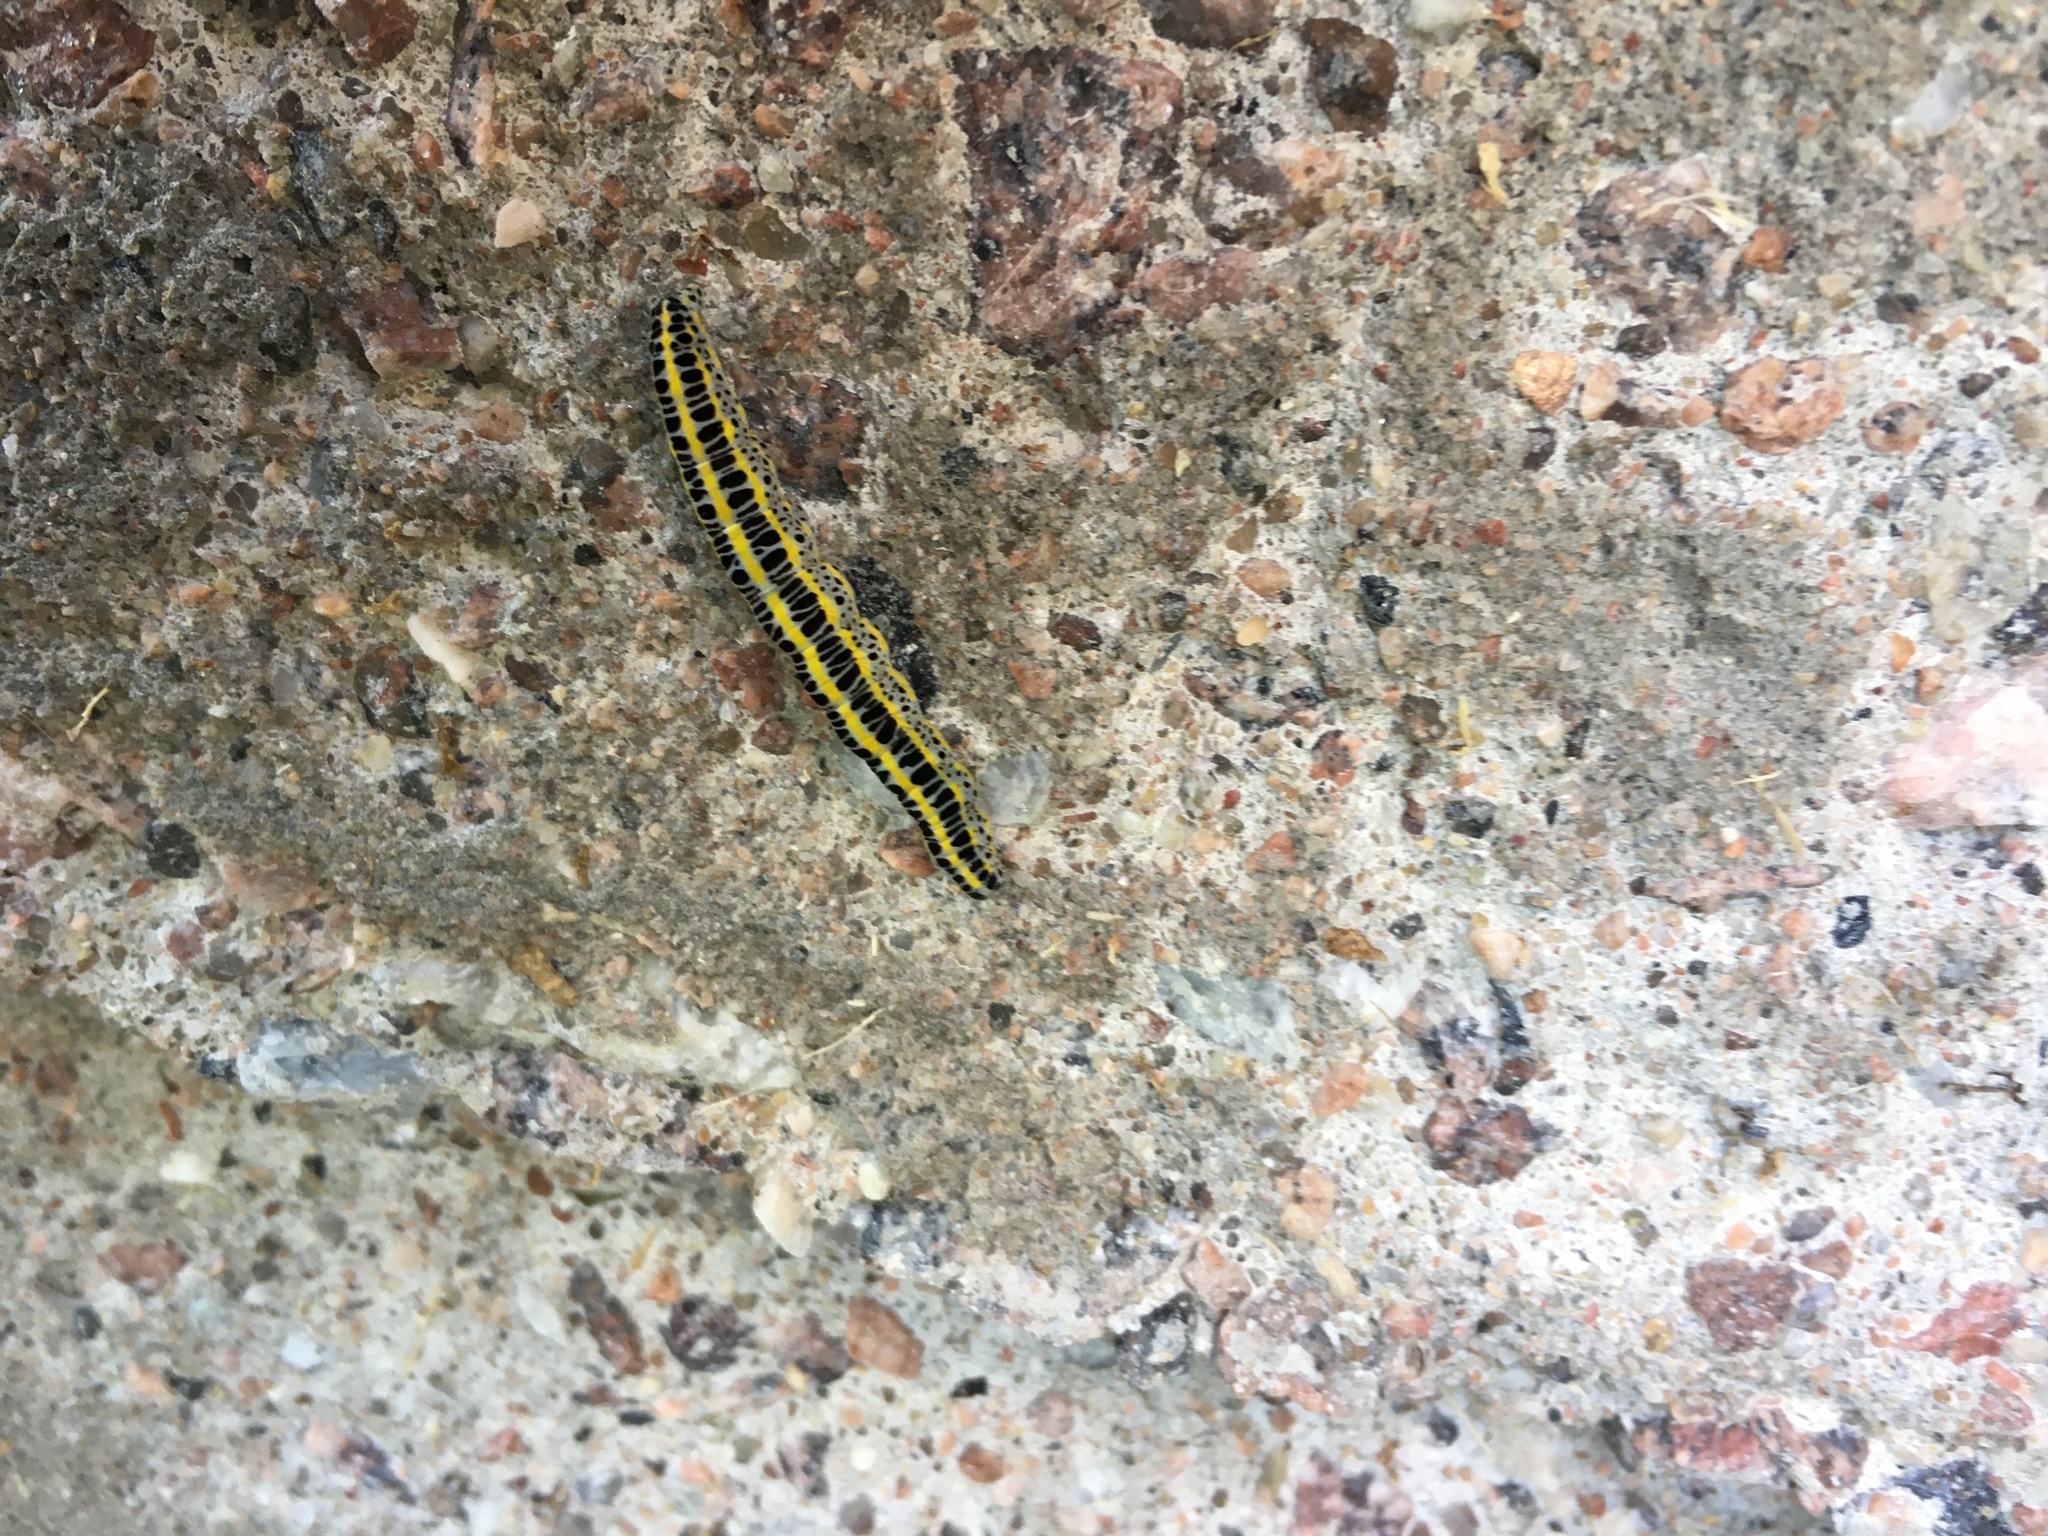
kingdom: Animalia
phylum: Arthropoda
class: Insecta
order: Lepidoptera
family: Noctuidae
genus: Calophasia
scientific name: Calophasia lunula
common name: Toadflax brocade
